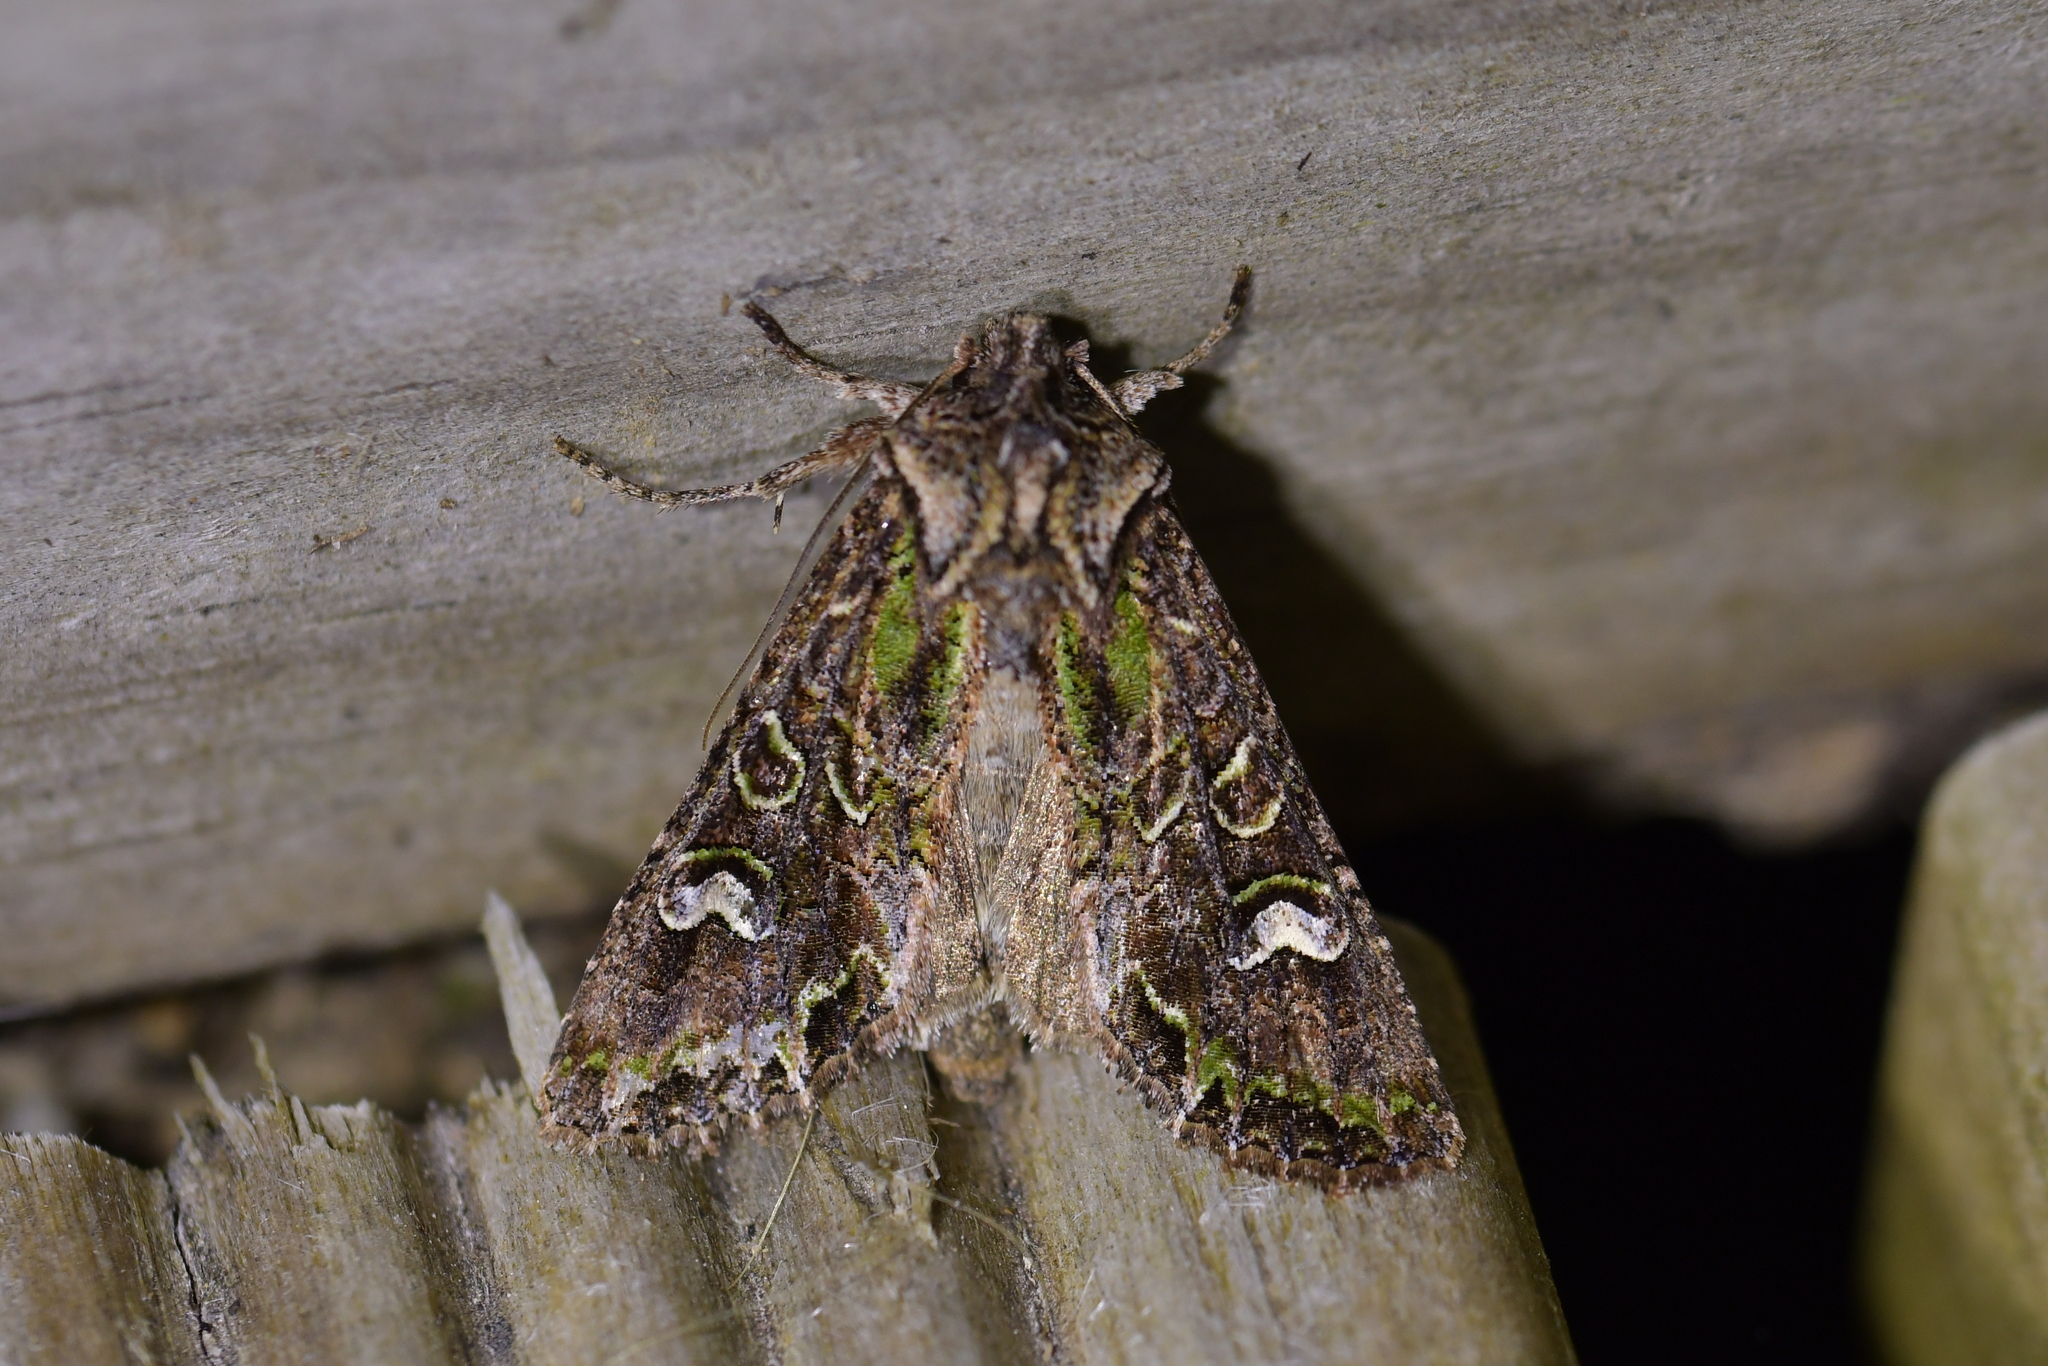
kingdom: Animalia
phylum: Arthropoda
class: Insecta
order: Lepidoptera
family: Noctuidae
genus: Ichneutica
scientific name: Ichneutica insignis
